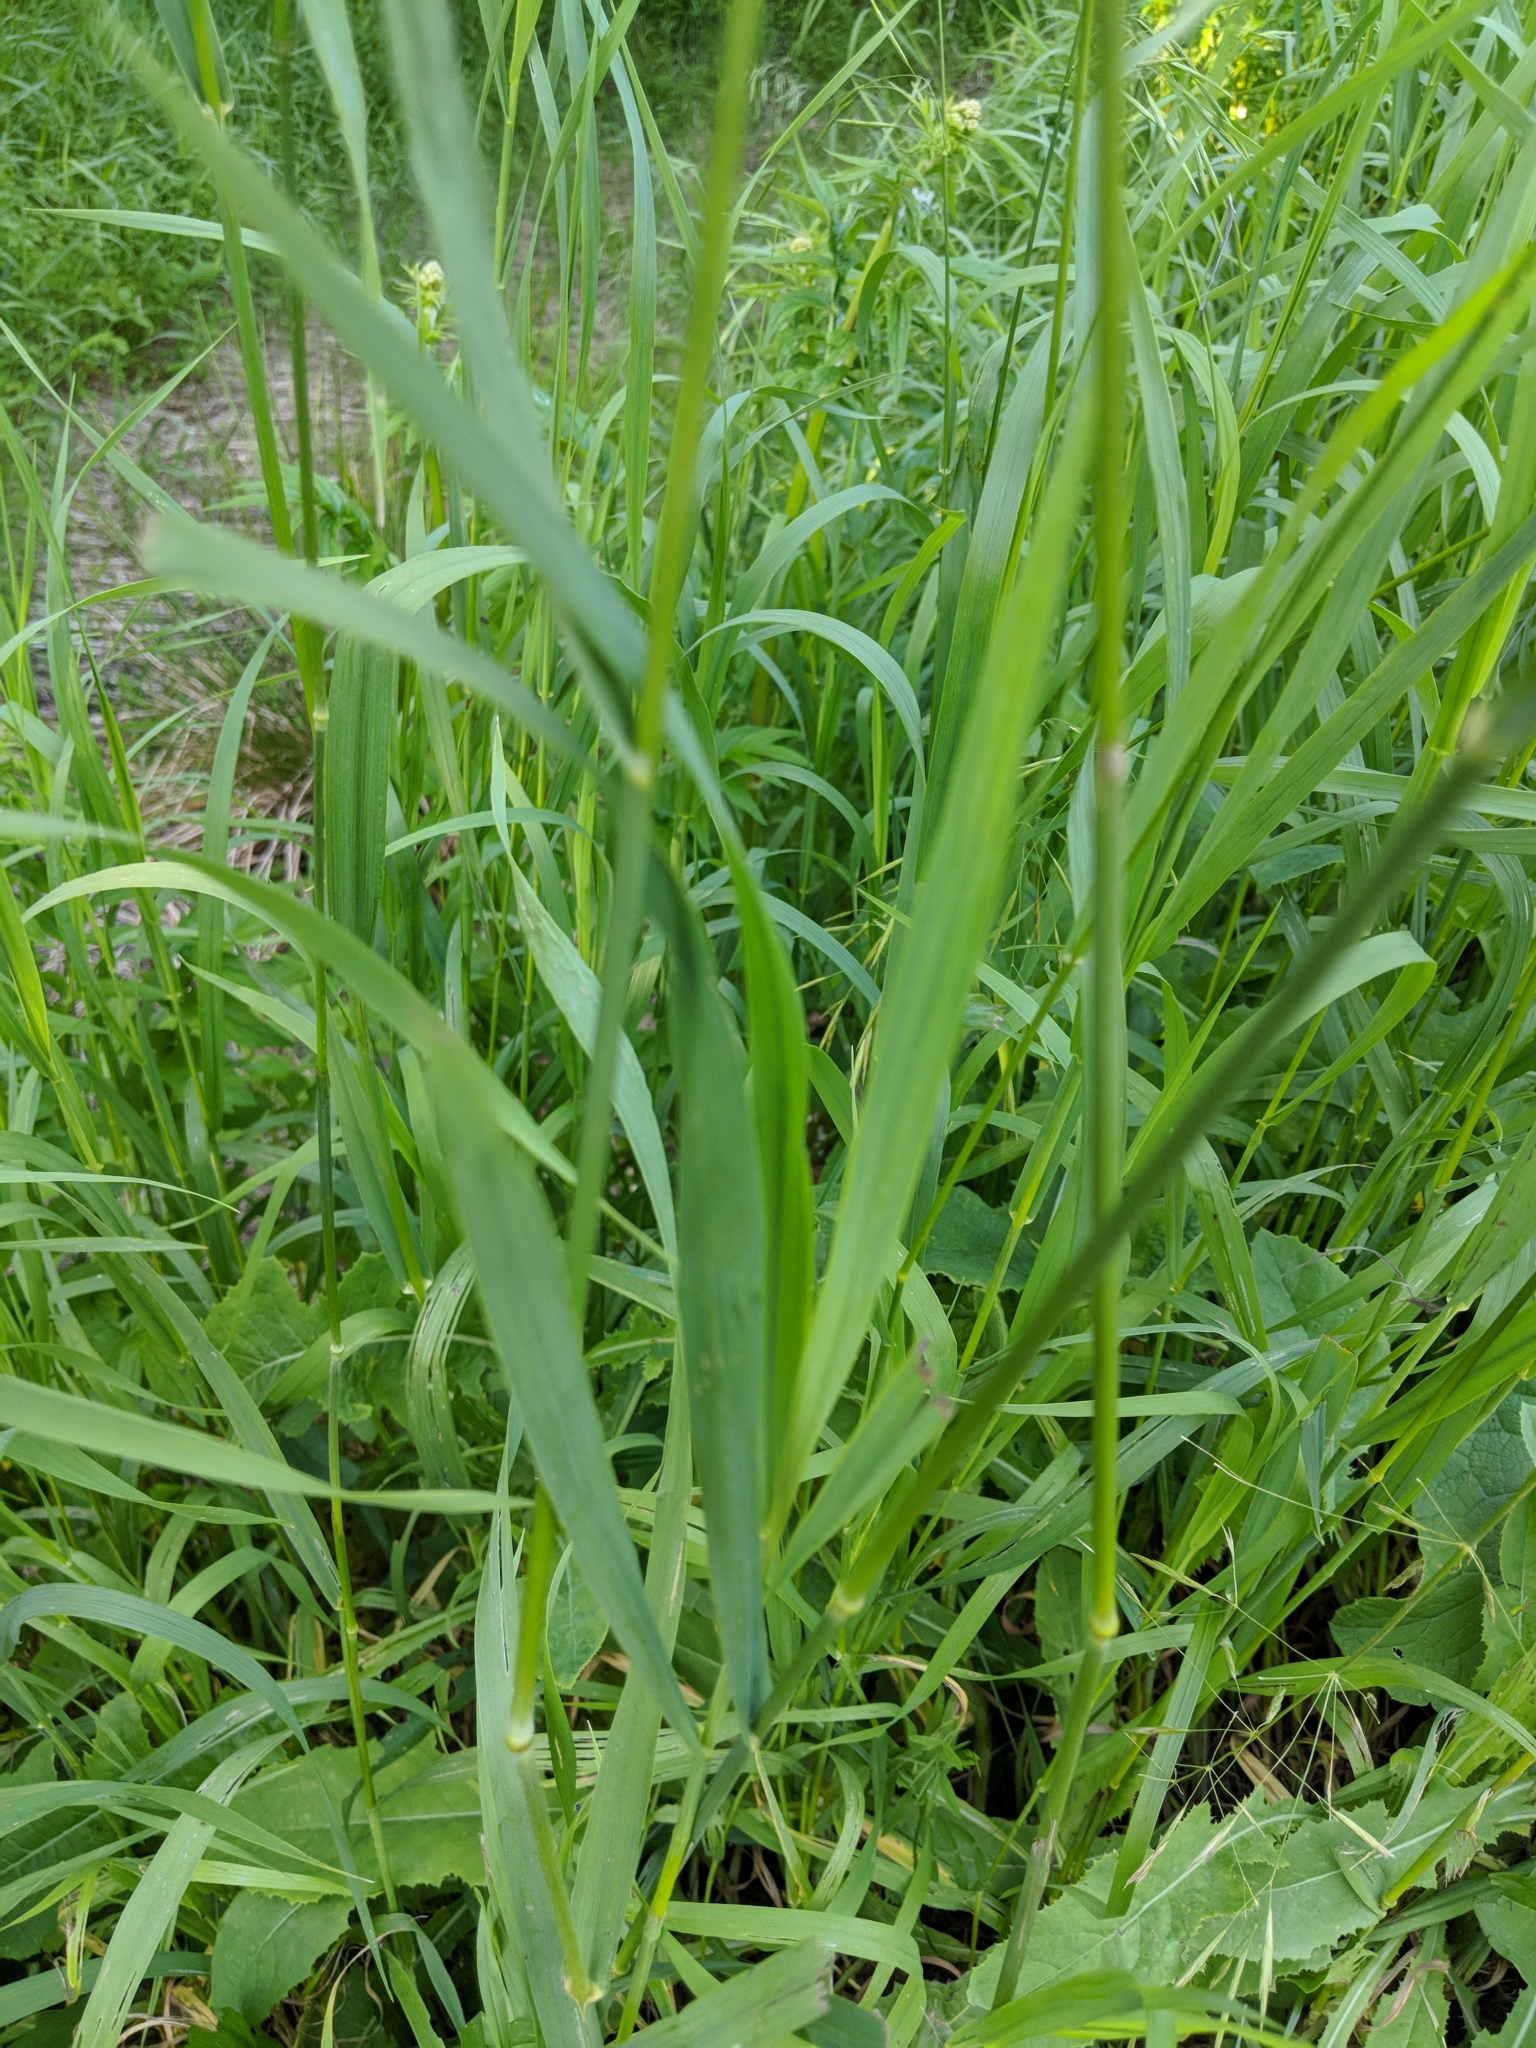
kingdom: Plantae
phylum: Tracheophyta
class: Liliopsida
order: Poales
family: Poaceae
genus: Bromus
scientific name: Bromus inermis
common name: Smooth brome
